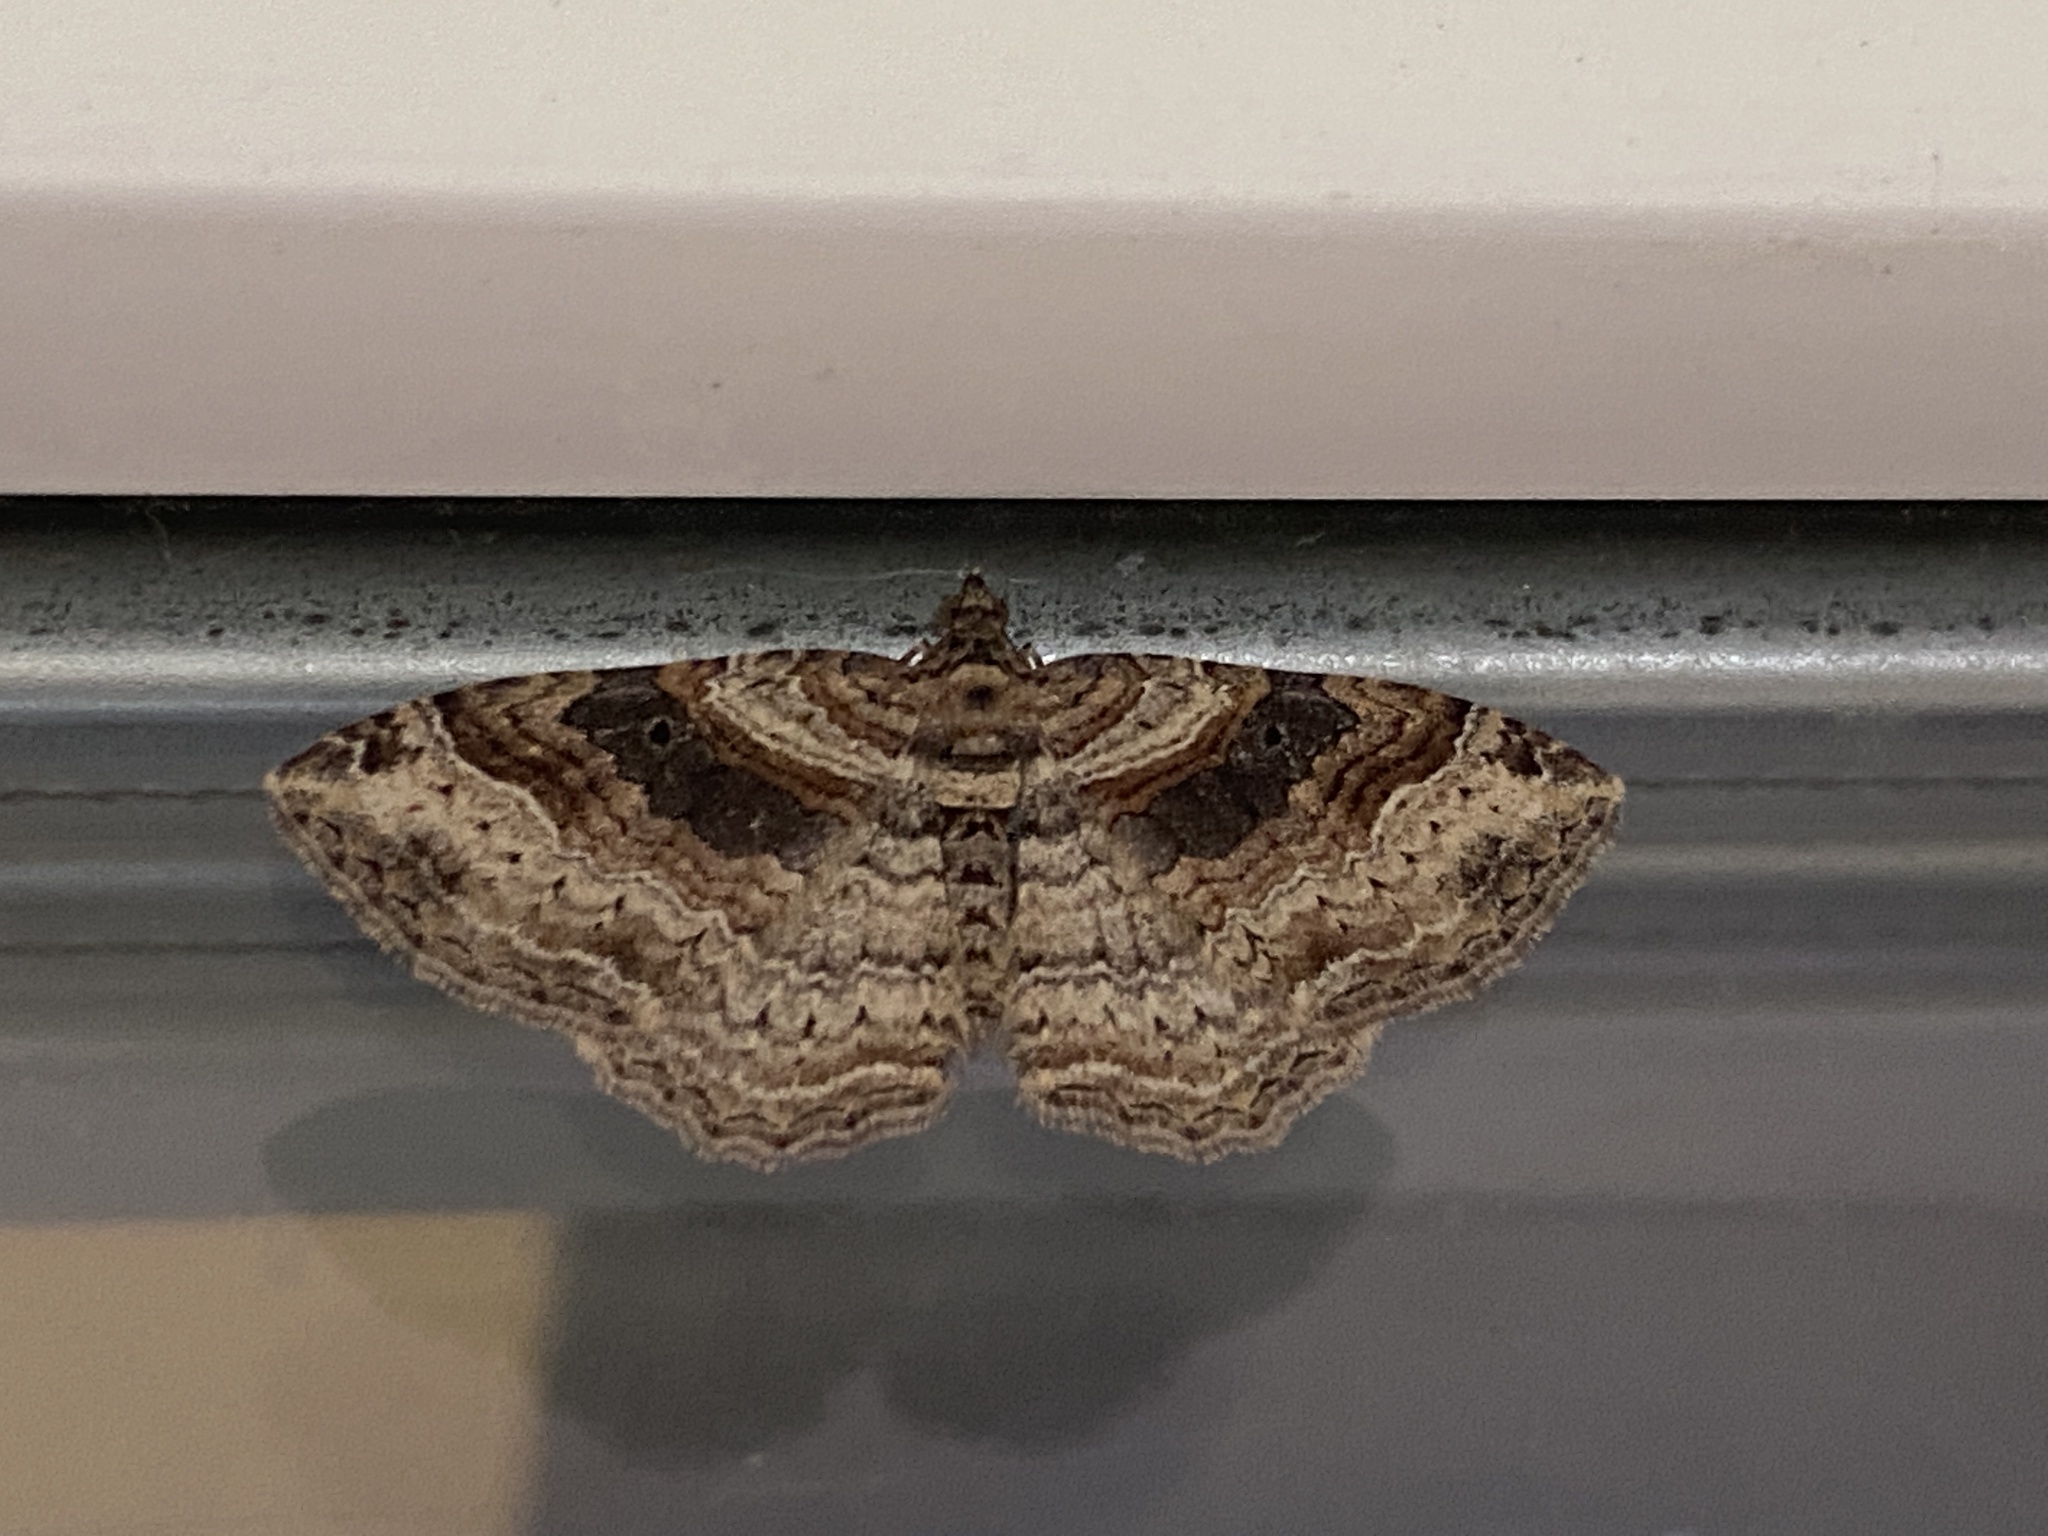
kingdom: Animalia
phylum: Arthropoda
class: Insecta
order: Lepidoptera
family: Geometridae
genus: Costaconvexa
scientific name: Costaconvexa centrostrigaria
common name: Bent-line carpet
